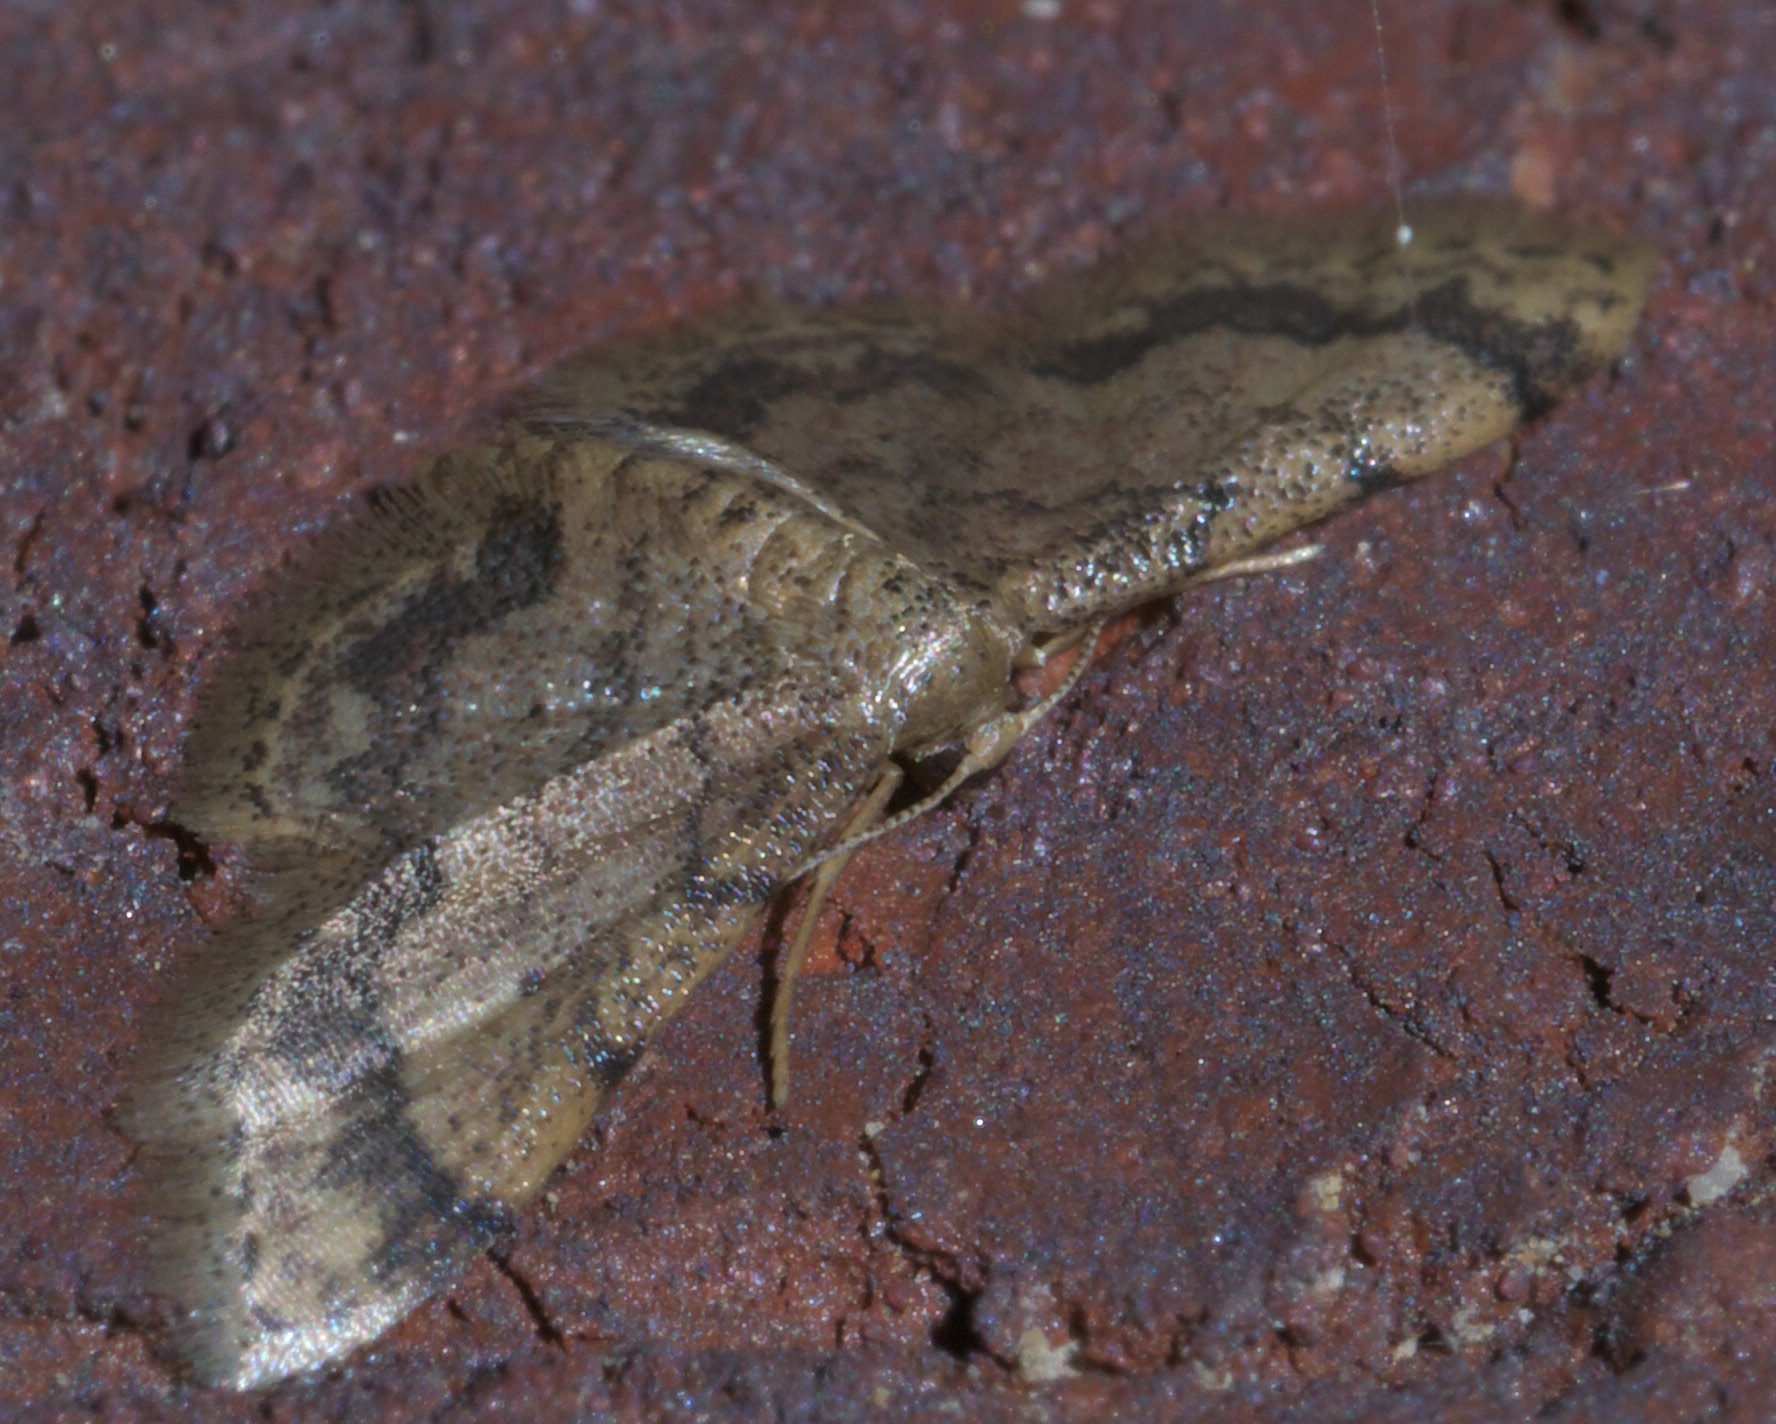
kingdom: Animalia
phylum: Arthropoda
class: Insecta
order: Lepidoptera
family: Geometridae
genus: Idaea
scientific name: Idaea celtima
